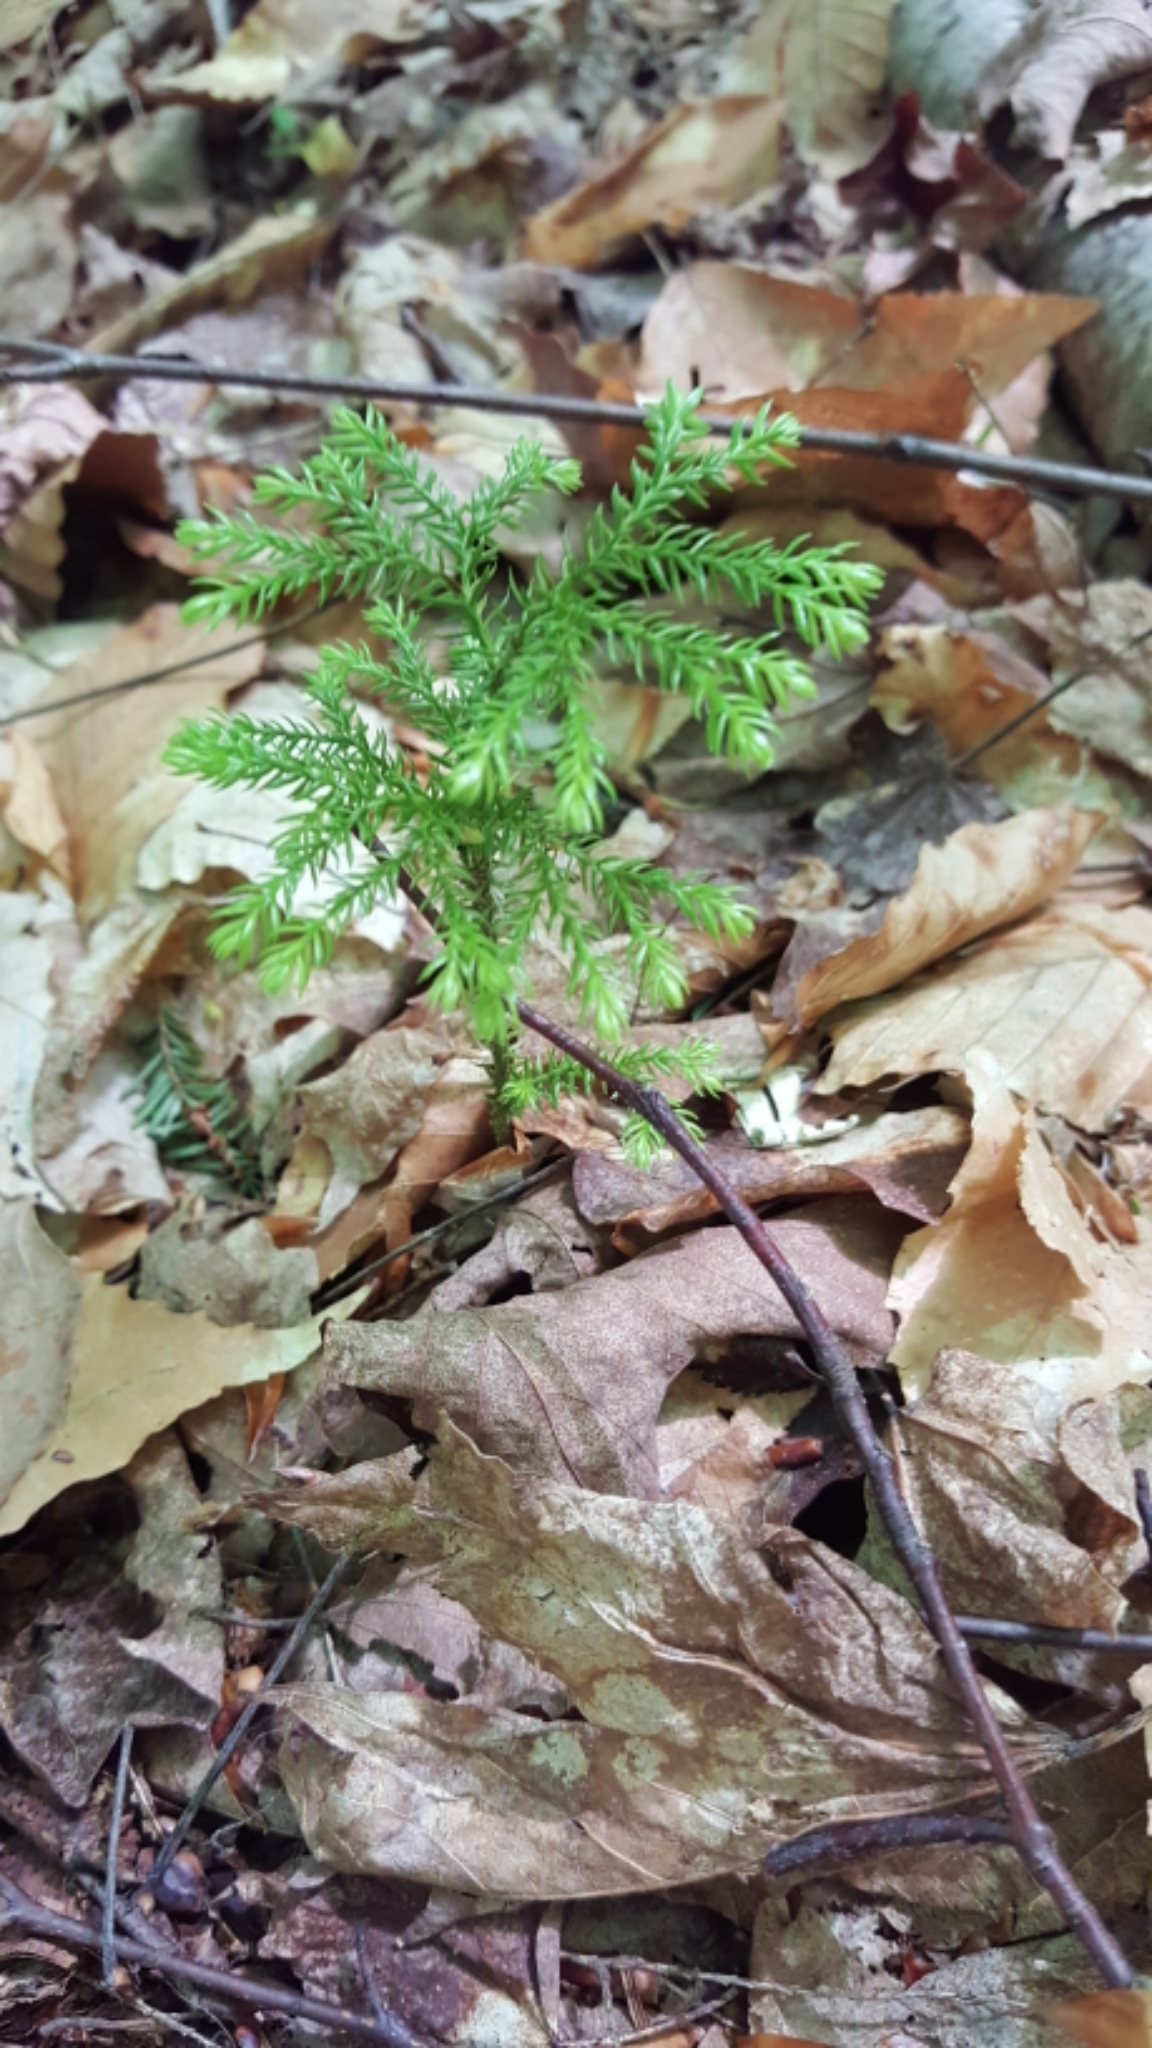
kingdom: Plantae
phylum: Tracheophyta
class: Lycopodiopsida
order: Lycopodiales
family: Lycopodiaceae
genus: Dendrolycopodium
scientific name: Dendrolycopodium dendroideum
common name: Northern tree-clubmoss
